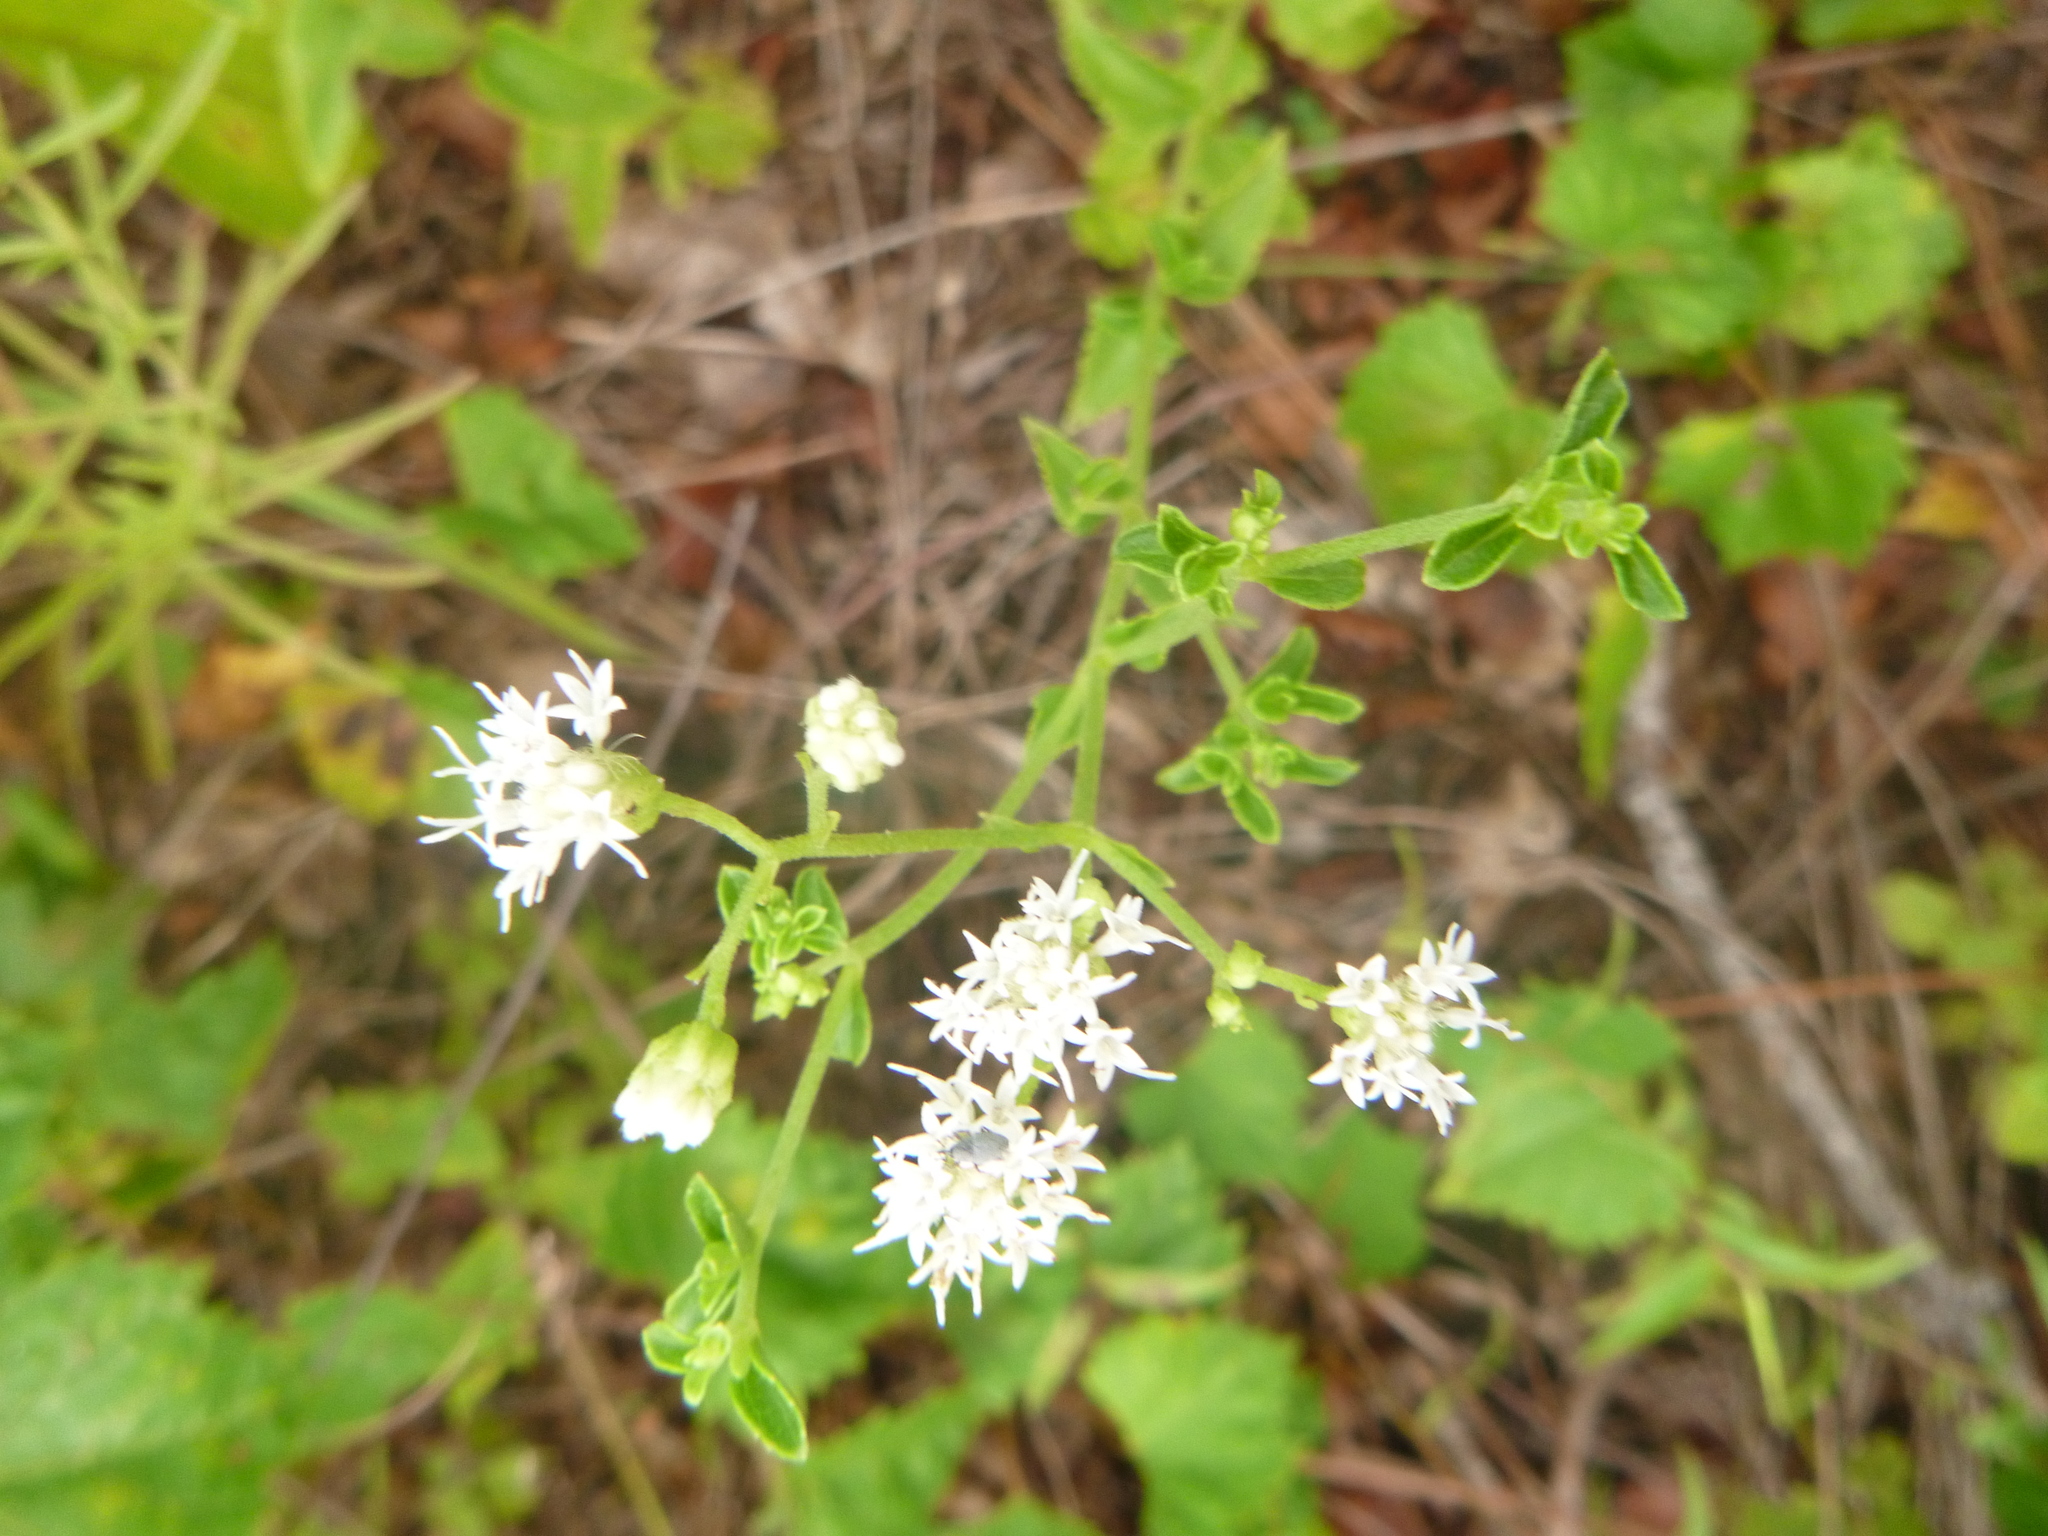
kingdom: Plantae
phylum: Tracheophyta
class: Magnoliopsida
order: Asterales
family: Asteraceae
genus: Ageratina
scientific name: Ageratina aromatica
